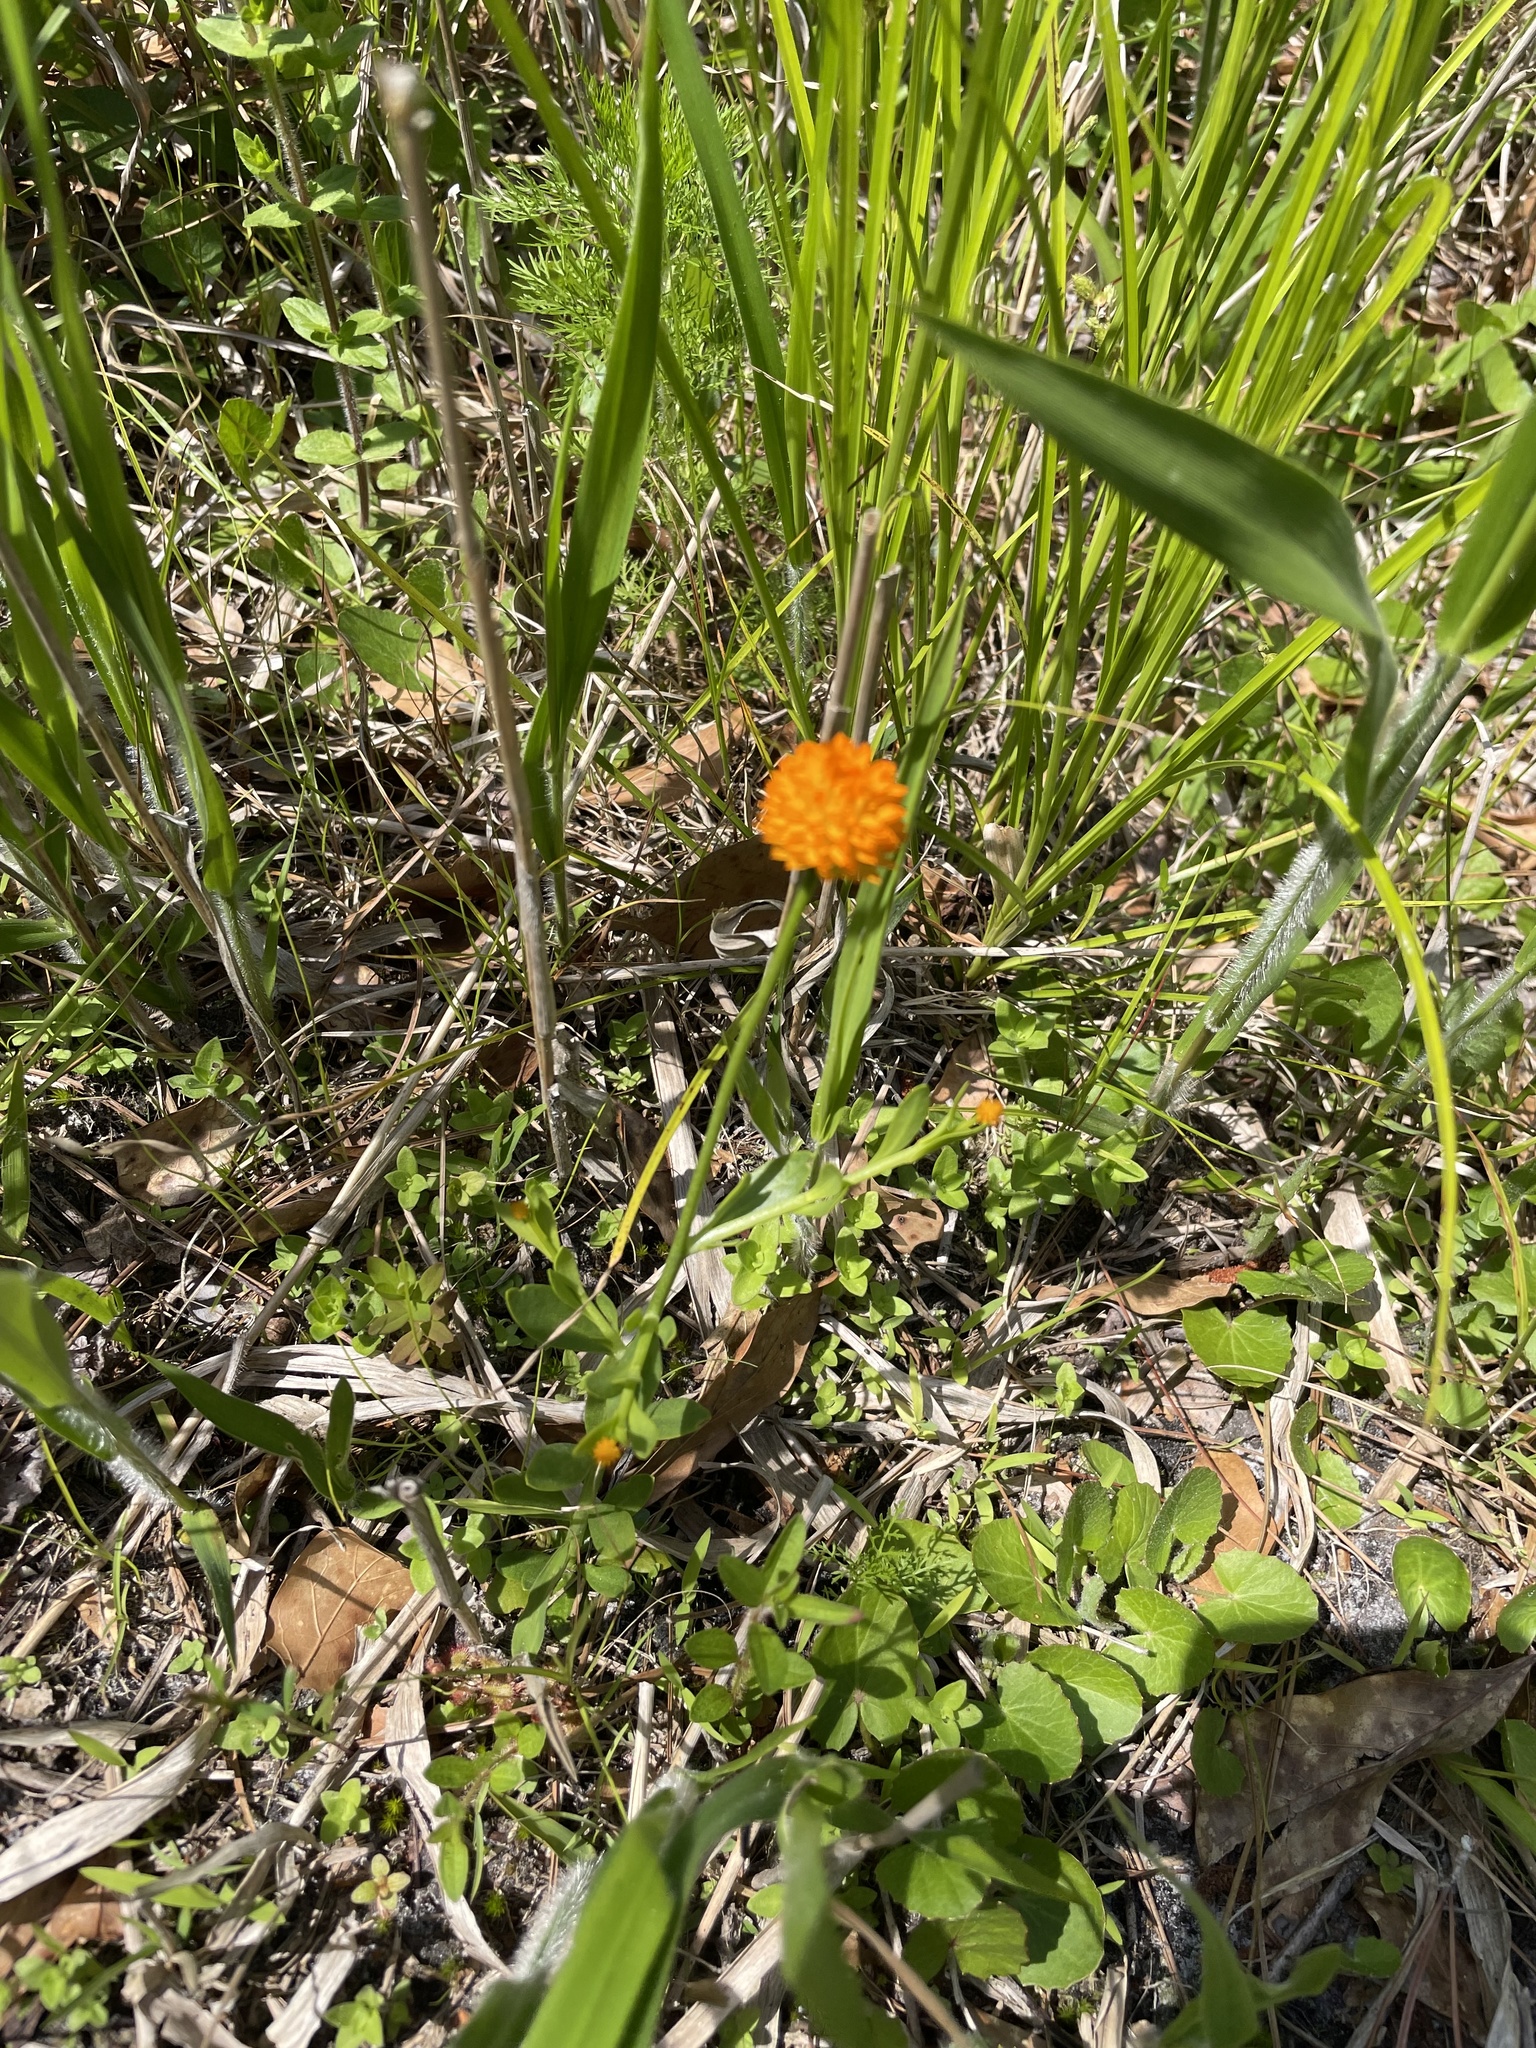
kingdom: Plantae
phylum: Tracheophyta
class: Magnoliopsida
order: Fabales
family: Polygalaceae
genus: Polygala
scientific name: Polygala lutea
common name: Orange milkwort
